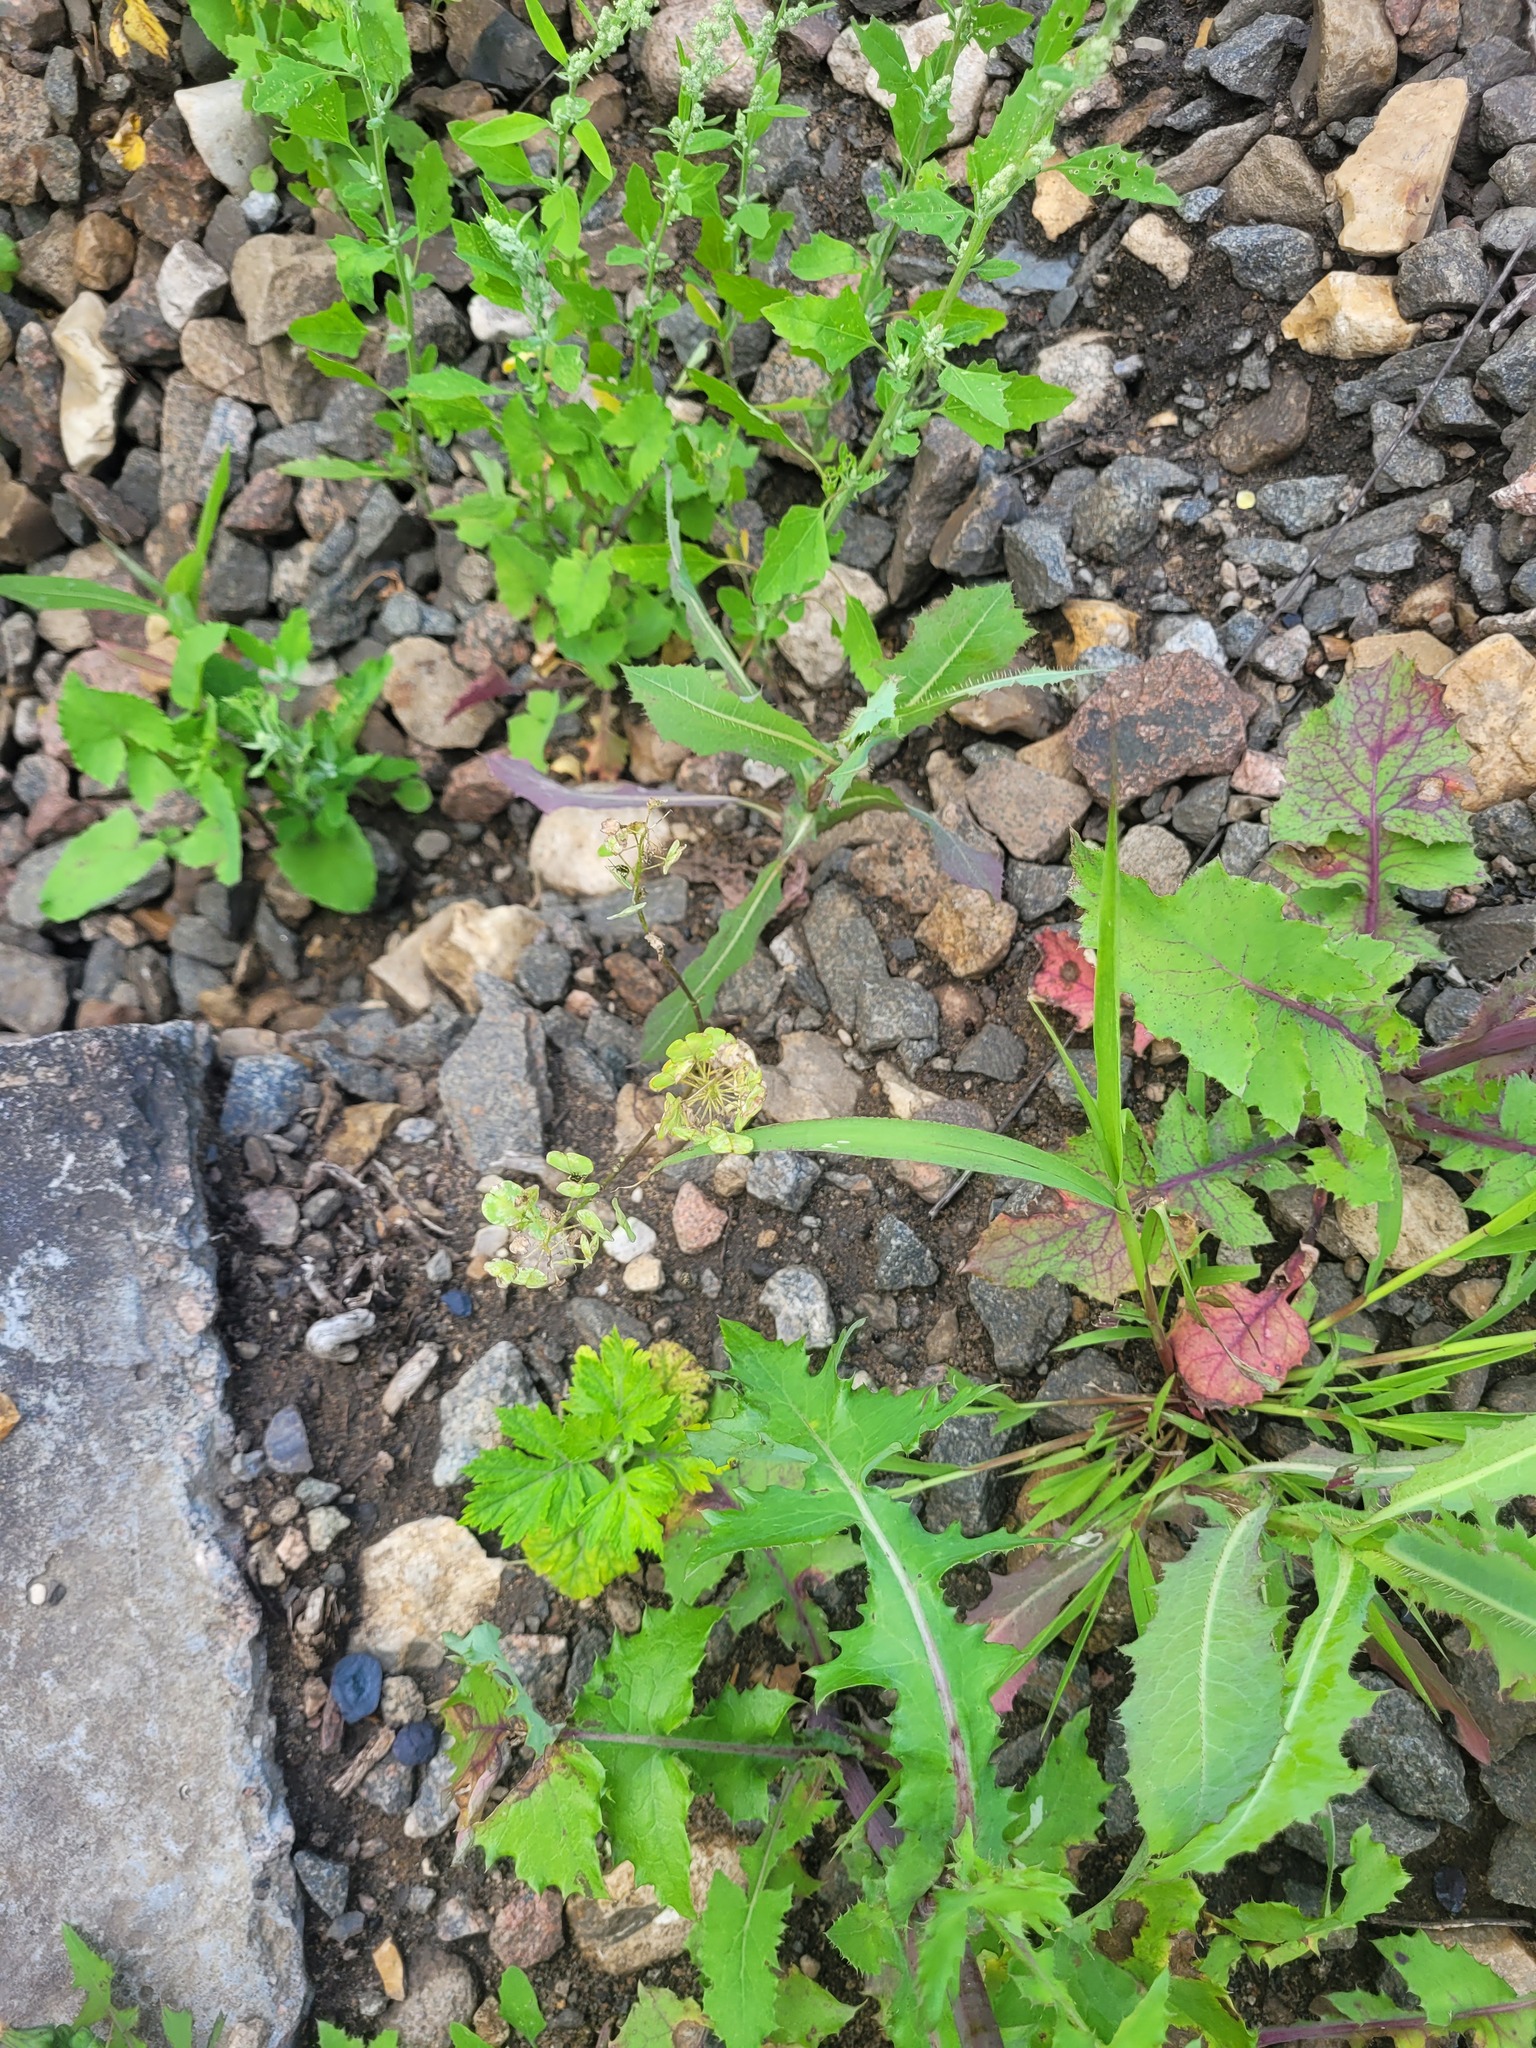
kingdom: Plantae
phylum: Tracheophyta
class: Magnoliopsida
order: Brassicales
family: Brassicaceae
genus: Thlaspi
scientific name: Thlaspi arvense
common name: Field pennycress
